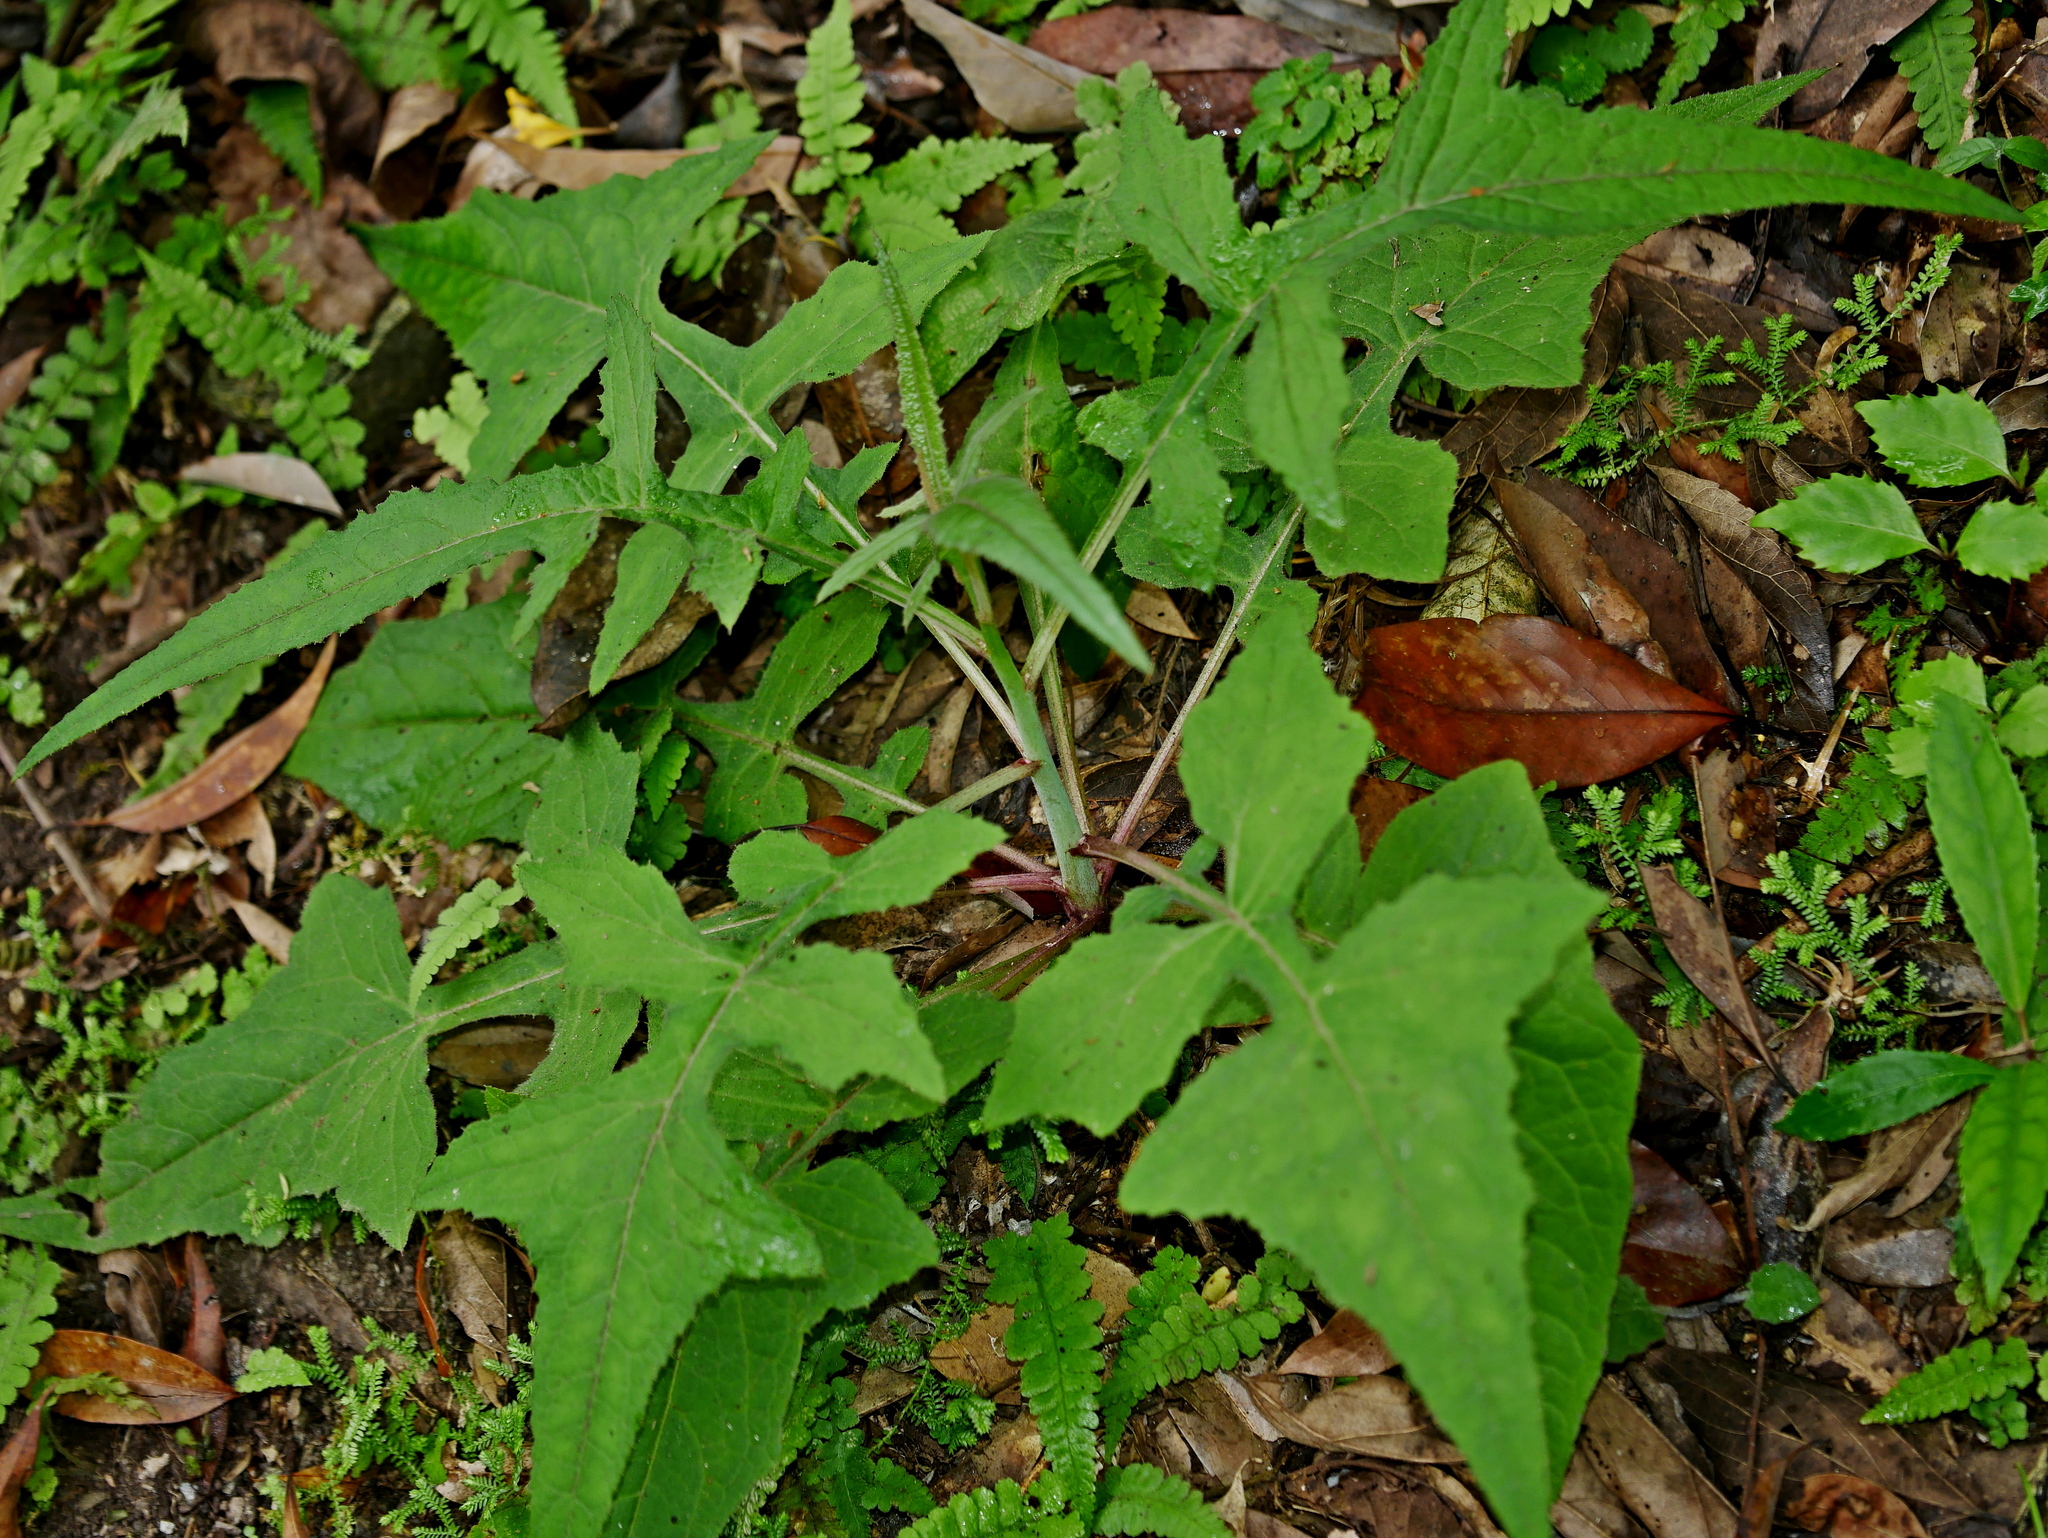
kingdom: Plantae
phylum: Tracheophyta
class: Magnoliopsida
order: Asterales
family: Asteraceae
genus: Paraprenanthes
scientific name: Paraprenanthes sororia
